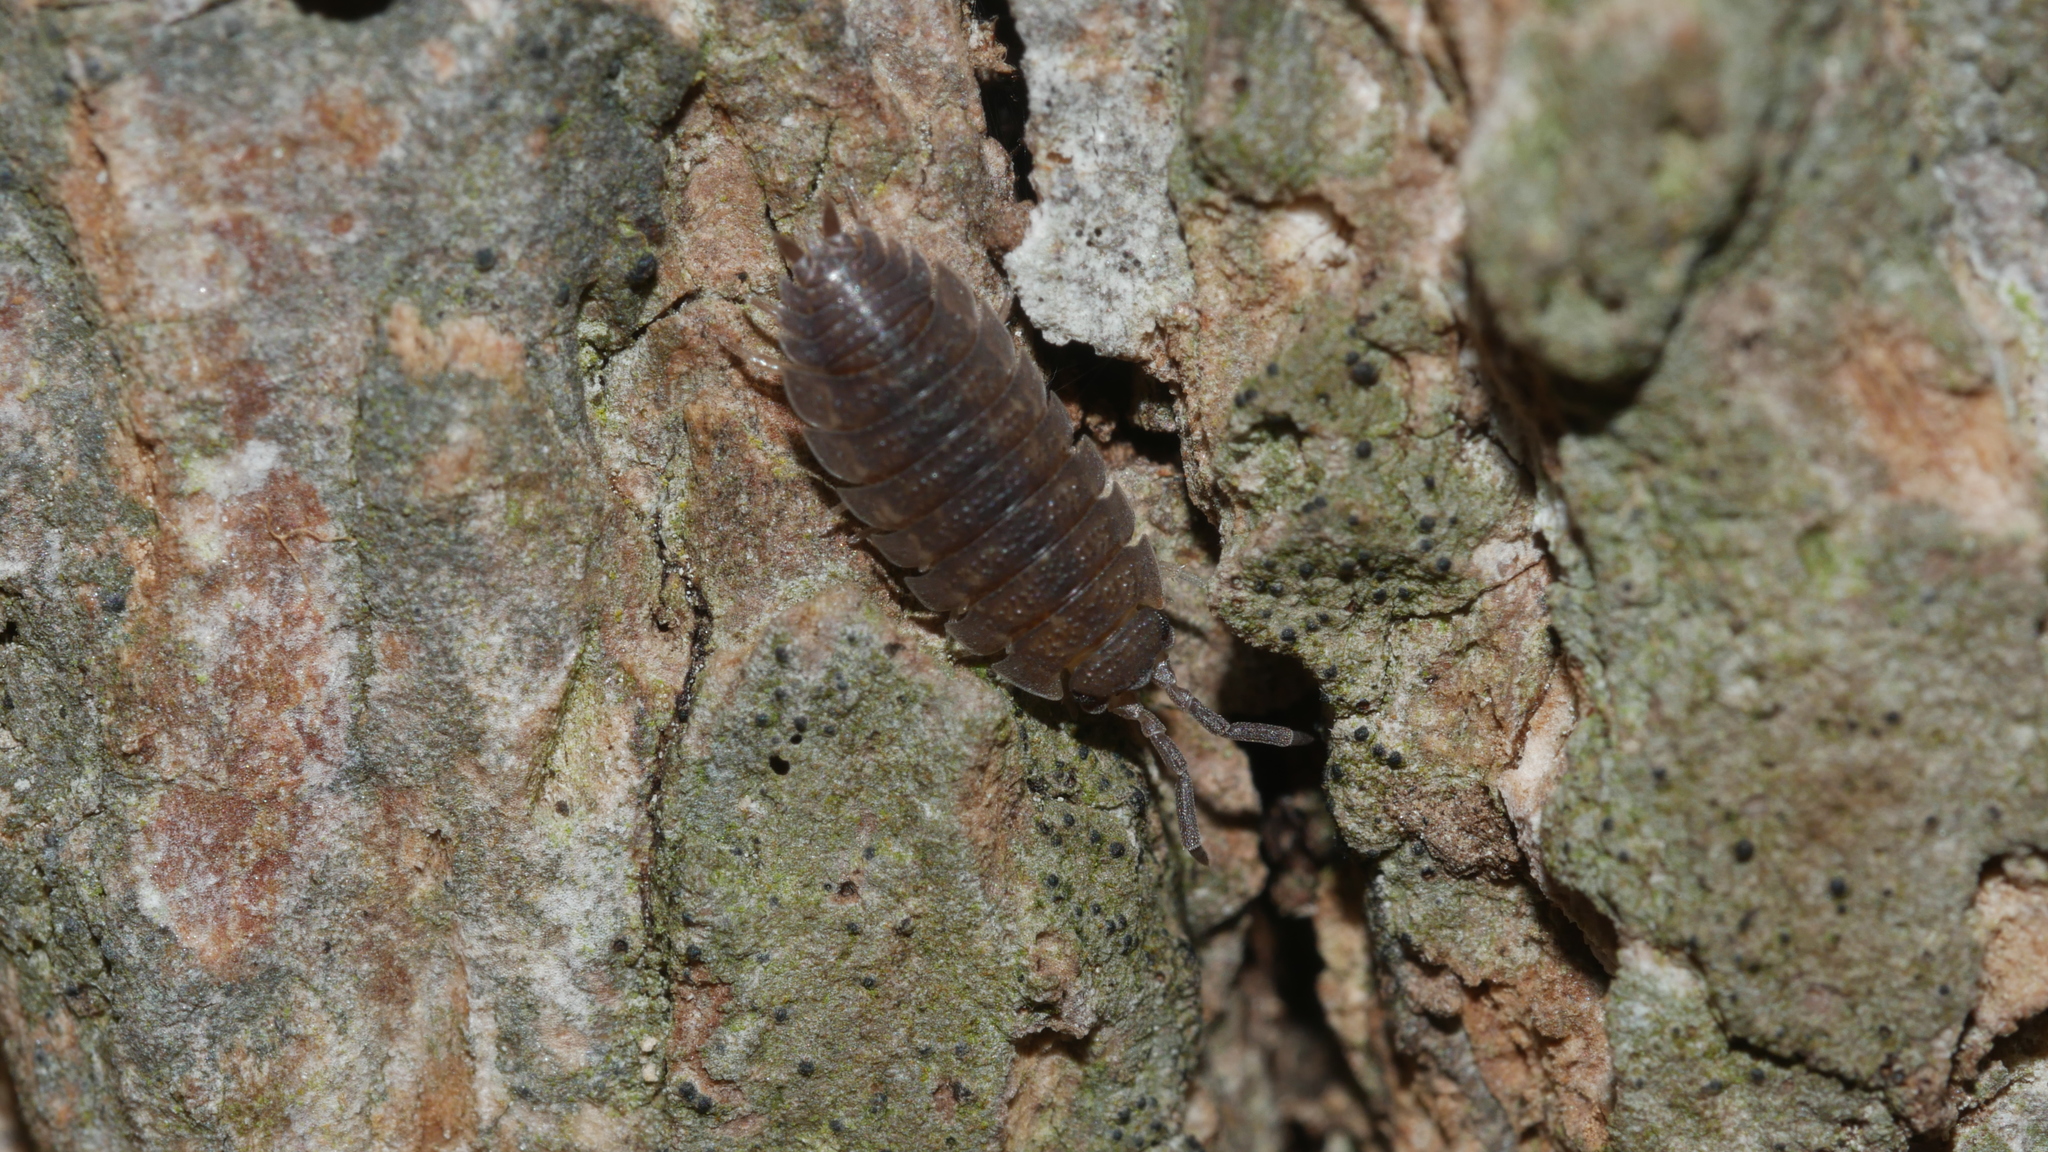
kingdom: Animalia
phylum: Arthropoda
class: Malacostraca
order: Isopoda
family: Porcellionidae
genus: Porcellio
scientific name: Porcellio scaber
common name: Common rough woodlouse
